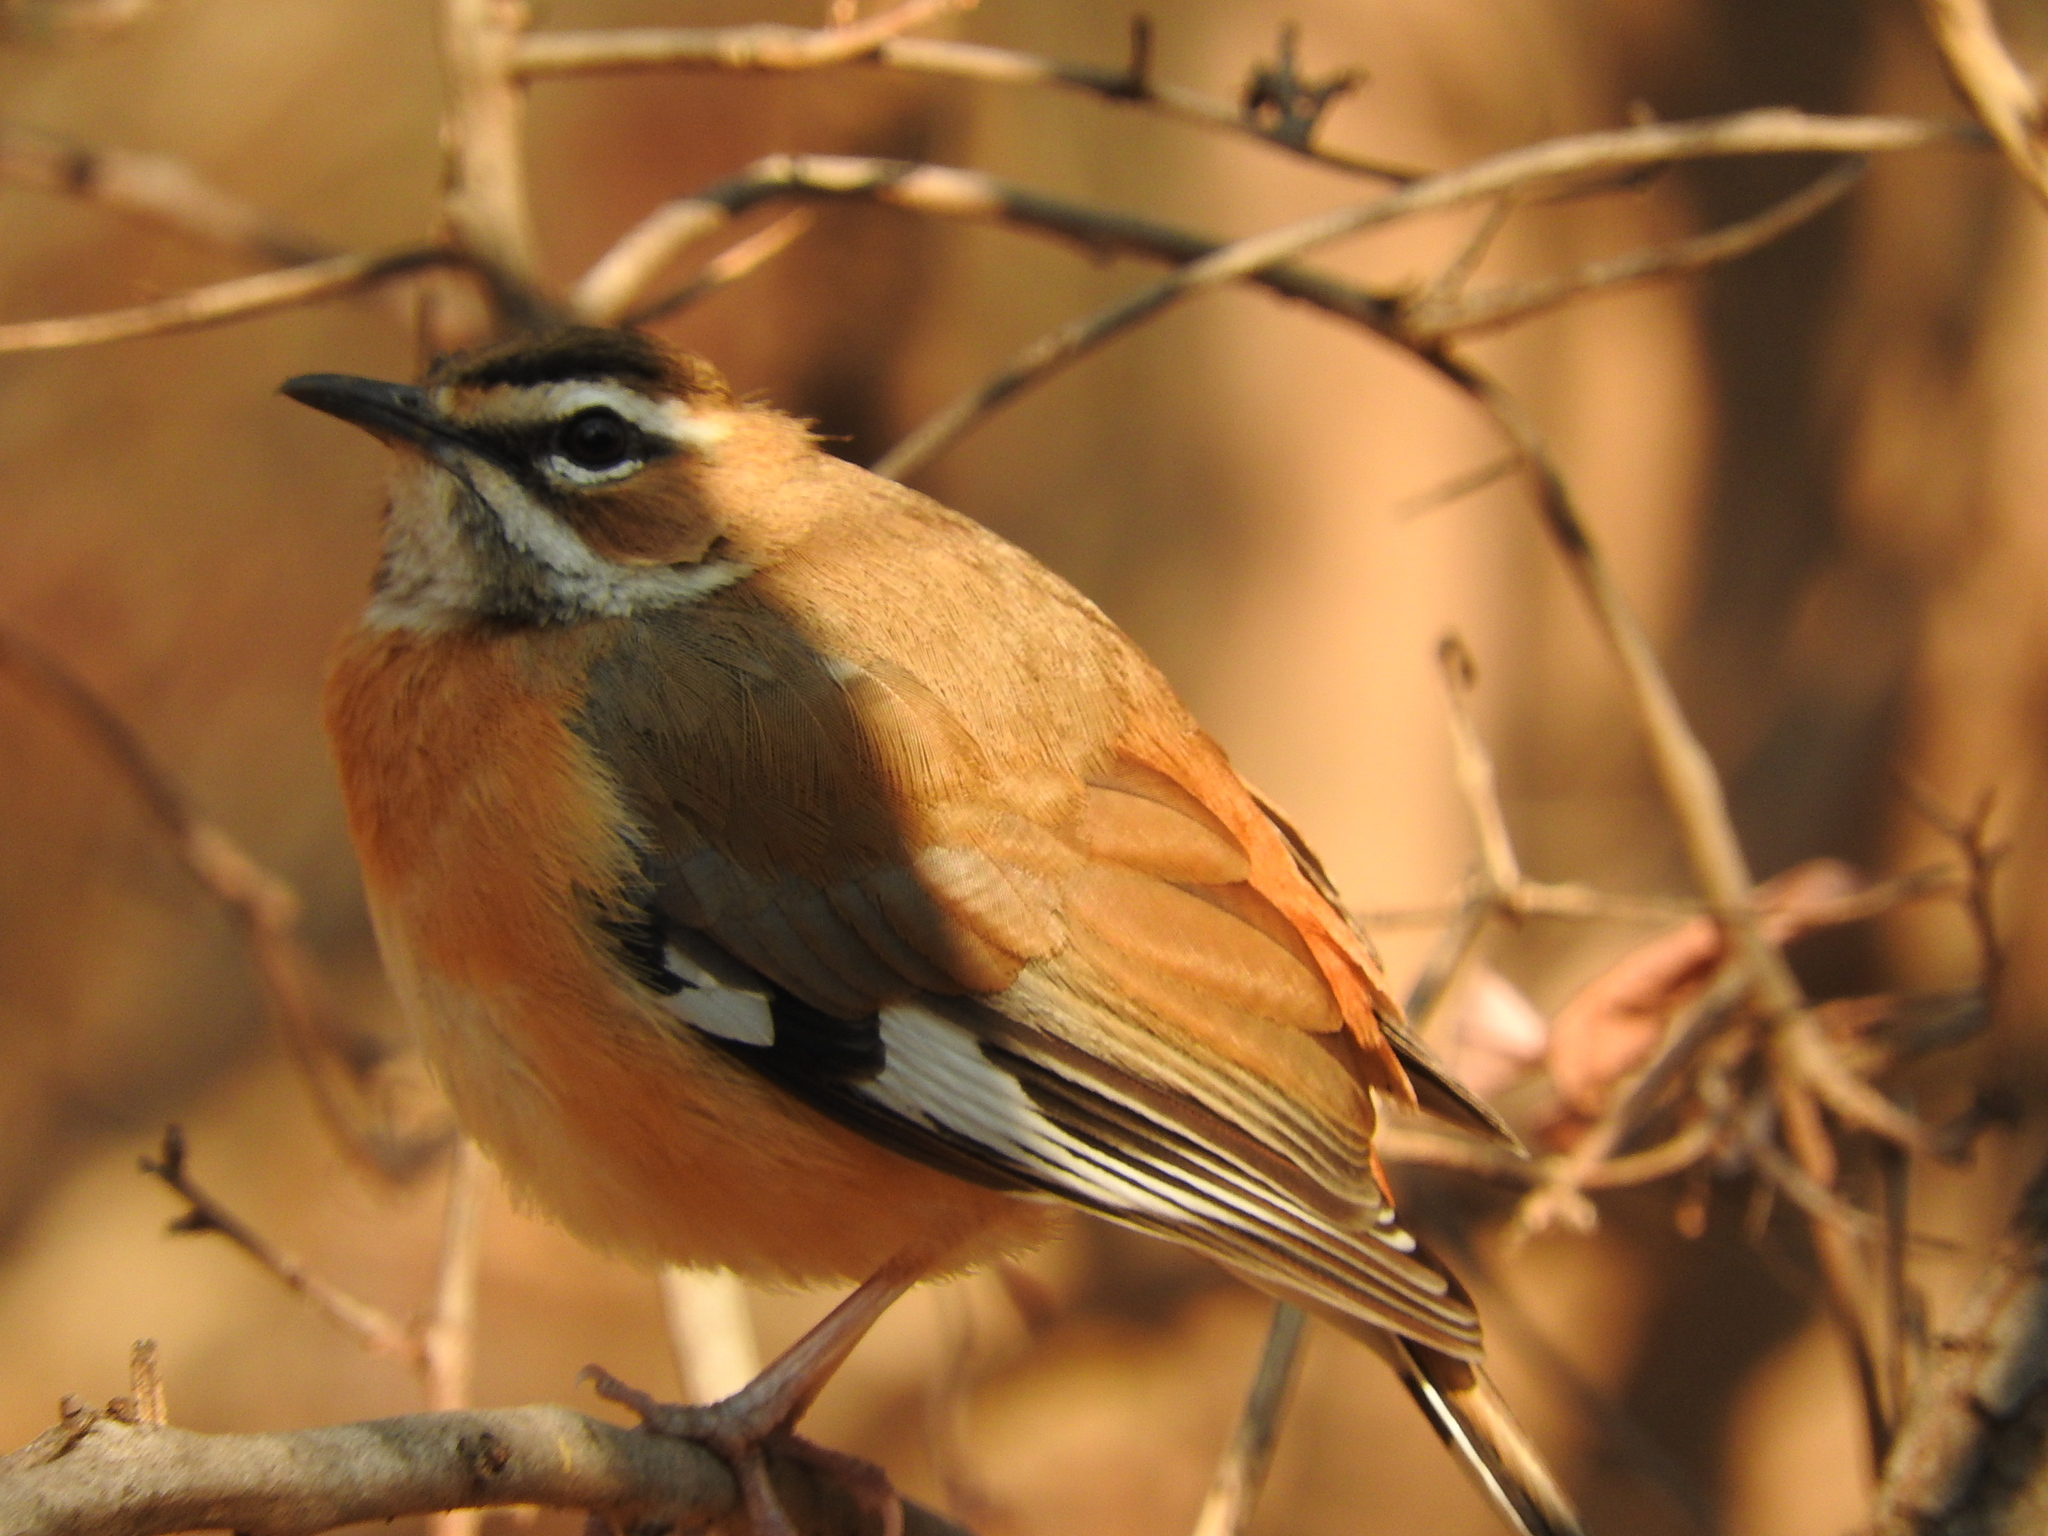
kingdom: Animalia
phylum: Chordata
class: Aves
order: Passeriformes
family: Muscicapidae
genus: Erythropygia
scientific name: Erythropygia quadrivirgata
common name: Bearded scrub robin
